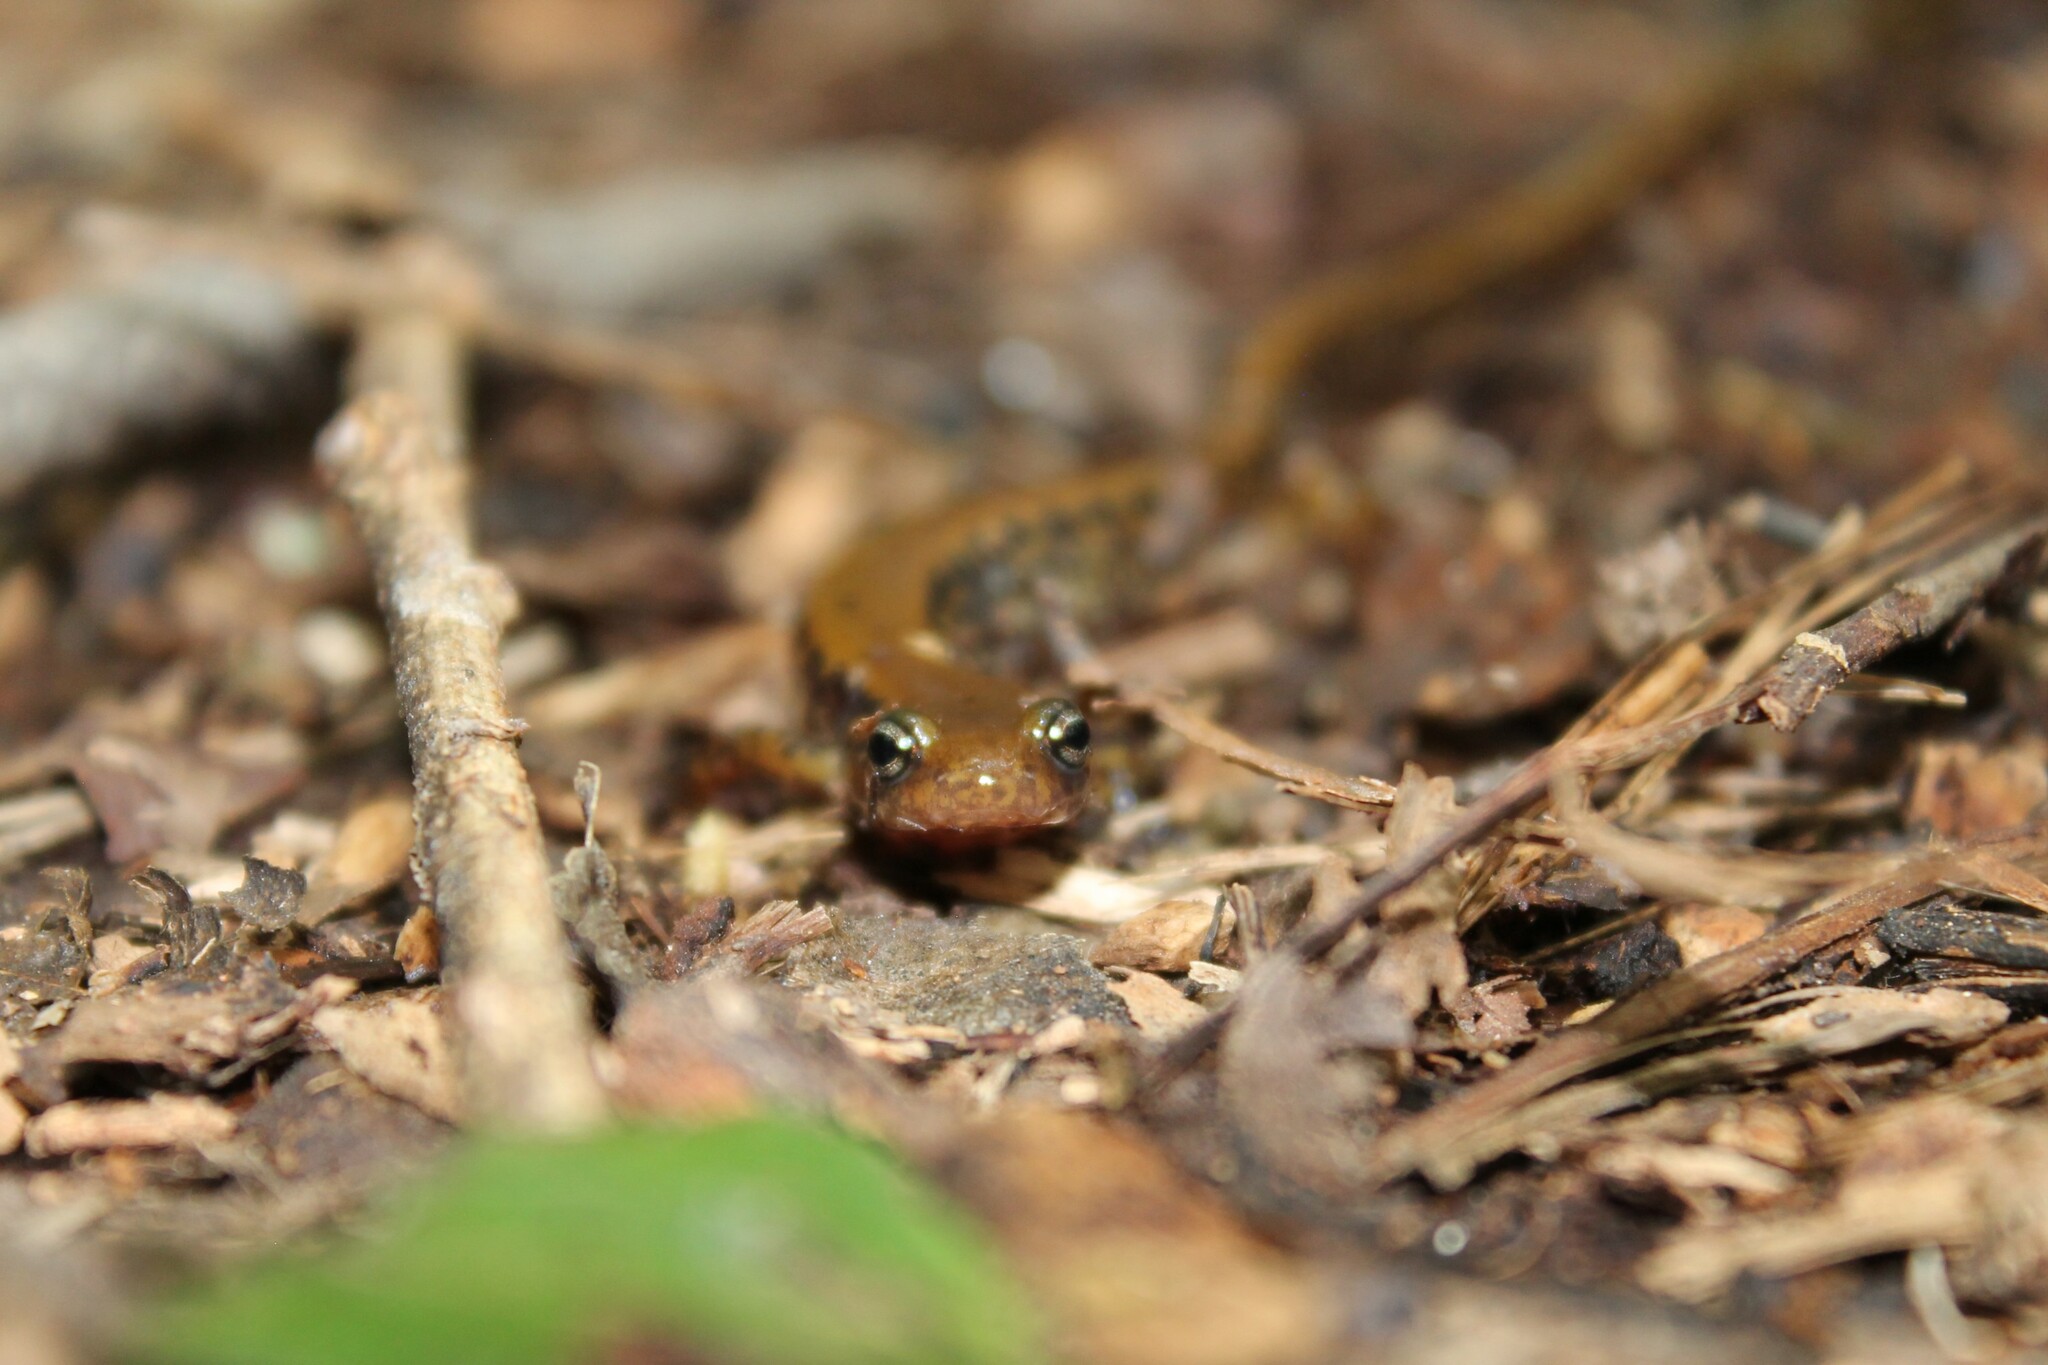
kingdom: Animalia
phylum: Chordata
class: Amphibia
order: Caudata
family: Plethodontidae
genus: Eurycea
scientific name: Eurycea longicauda
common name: Long-tailed salamander
